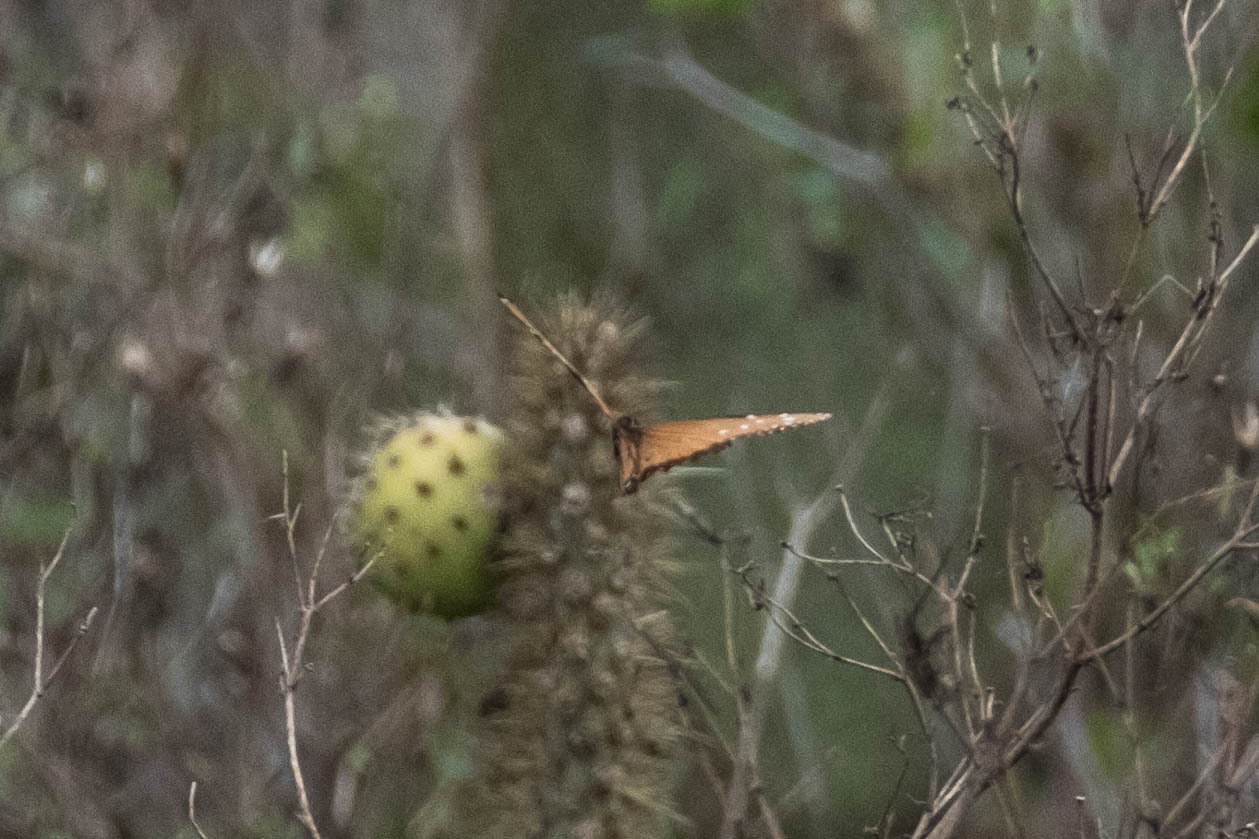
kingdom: Animalia
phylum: Arthropoda
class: Insecta
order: Lepidoptera
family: Nymphalidae
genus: Danaus
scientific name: Danaus gilippus
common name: Queen
